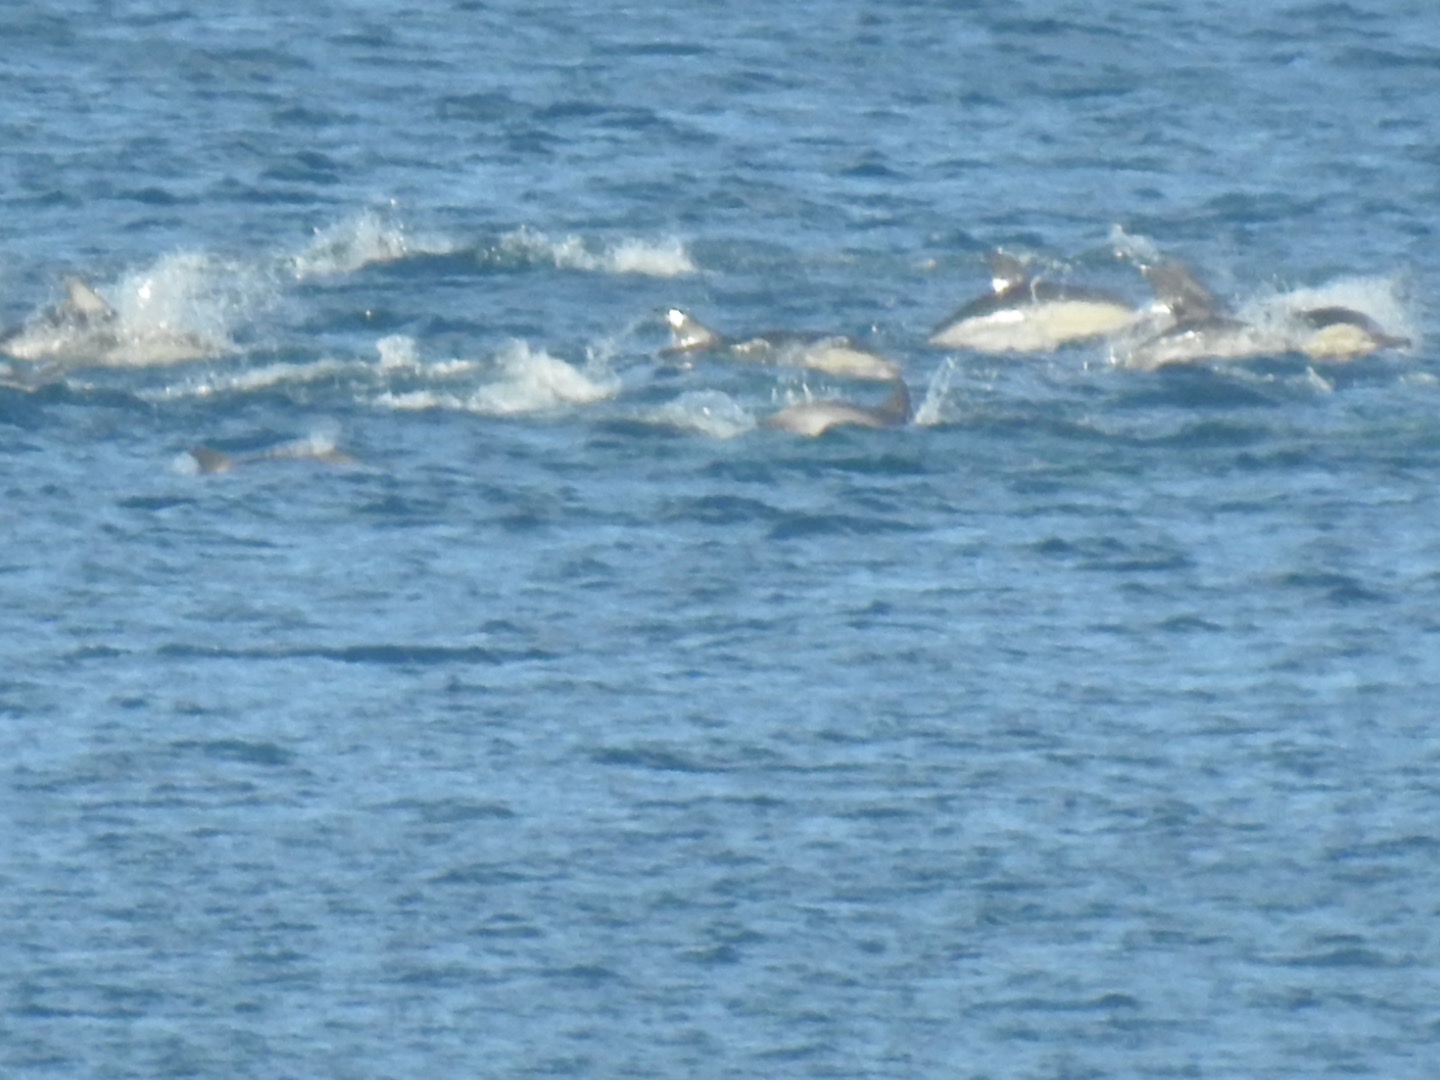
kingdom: Animalia
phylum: Chordata
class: Mammalia
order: Cetacea
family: Delphinidae
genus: Delphinus
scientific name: Delphinus delphis
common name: Common dolphin
